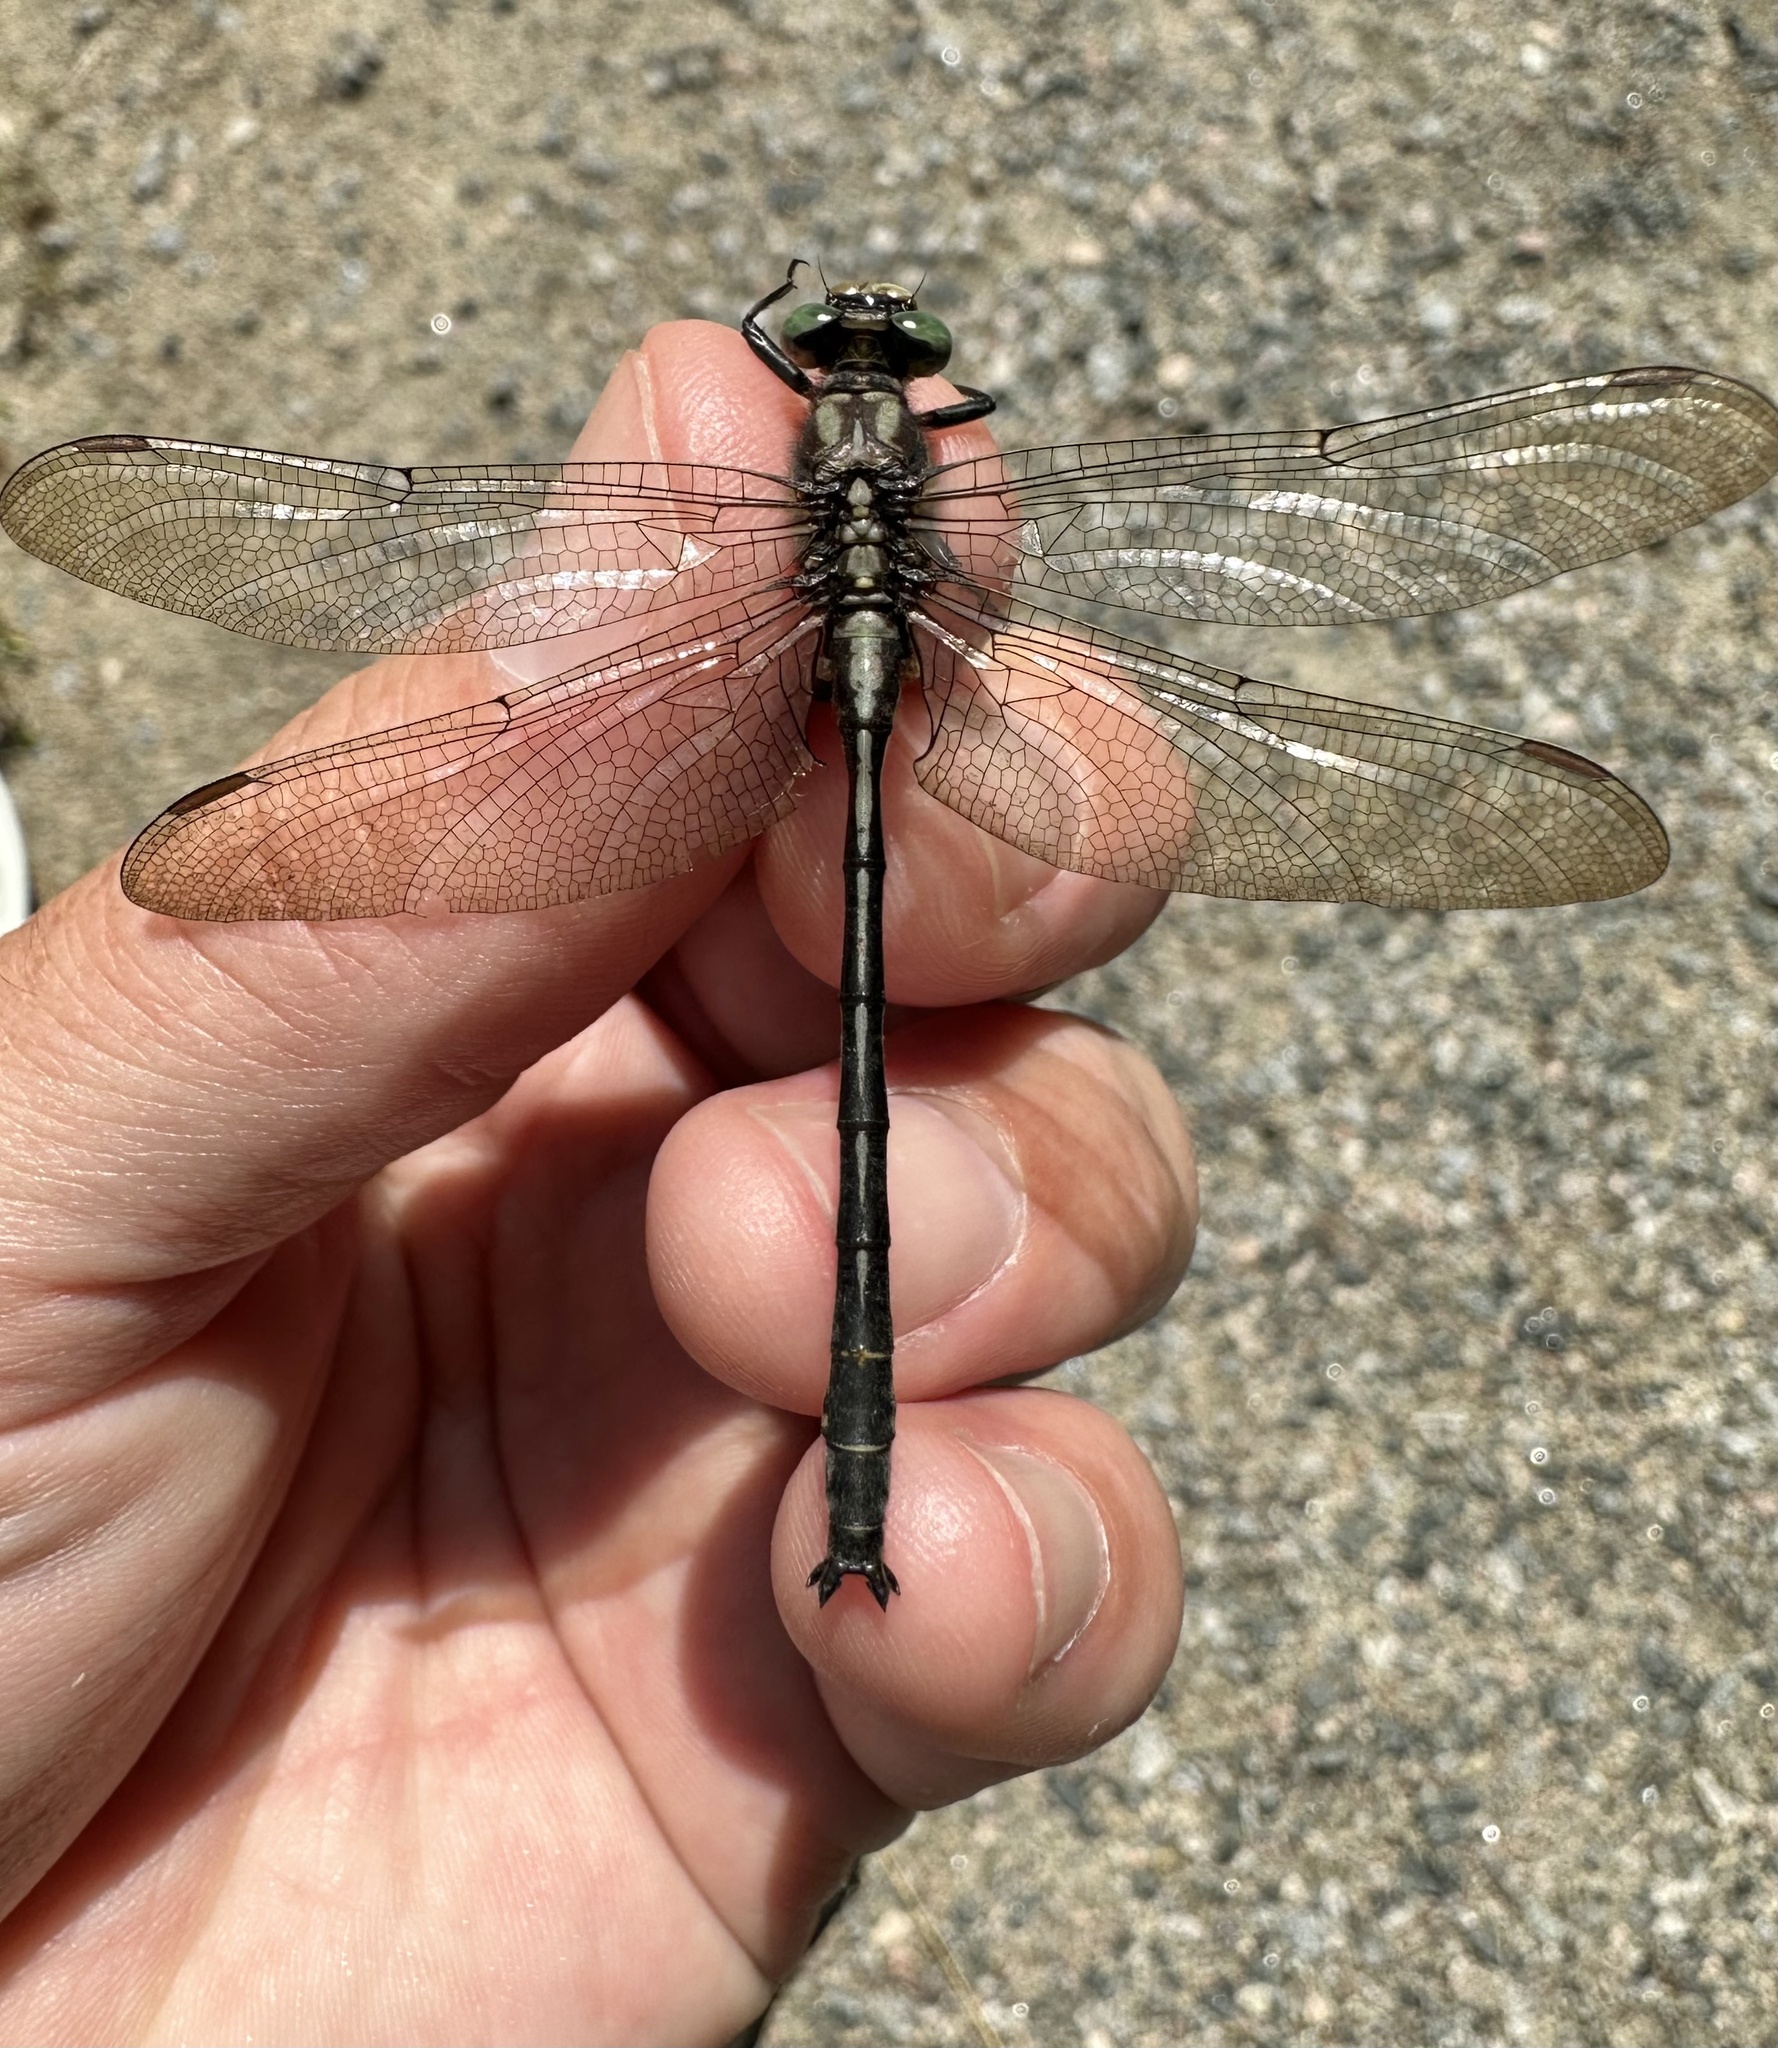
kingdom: Animalia
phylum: Arthropoda
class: Insecta
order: Odonata
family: Gomphidae
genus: Phanogomphus
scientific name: Phanogomphus descriptus
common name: Harpoon clubtail
